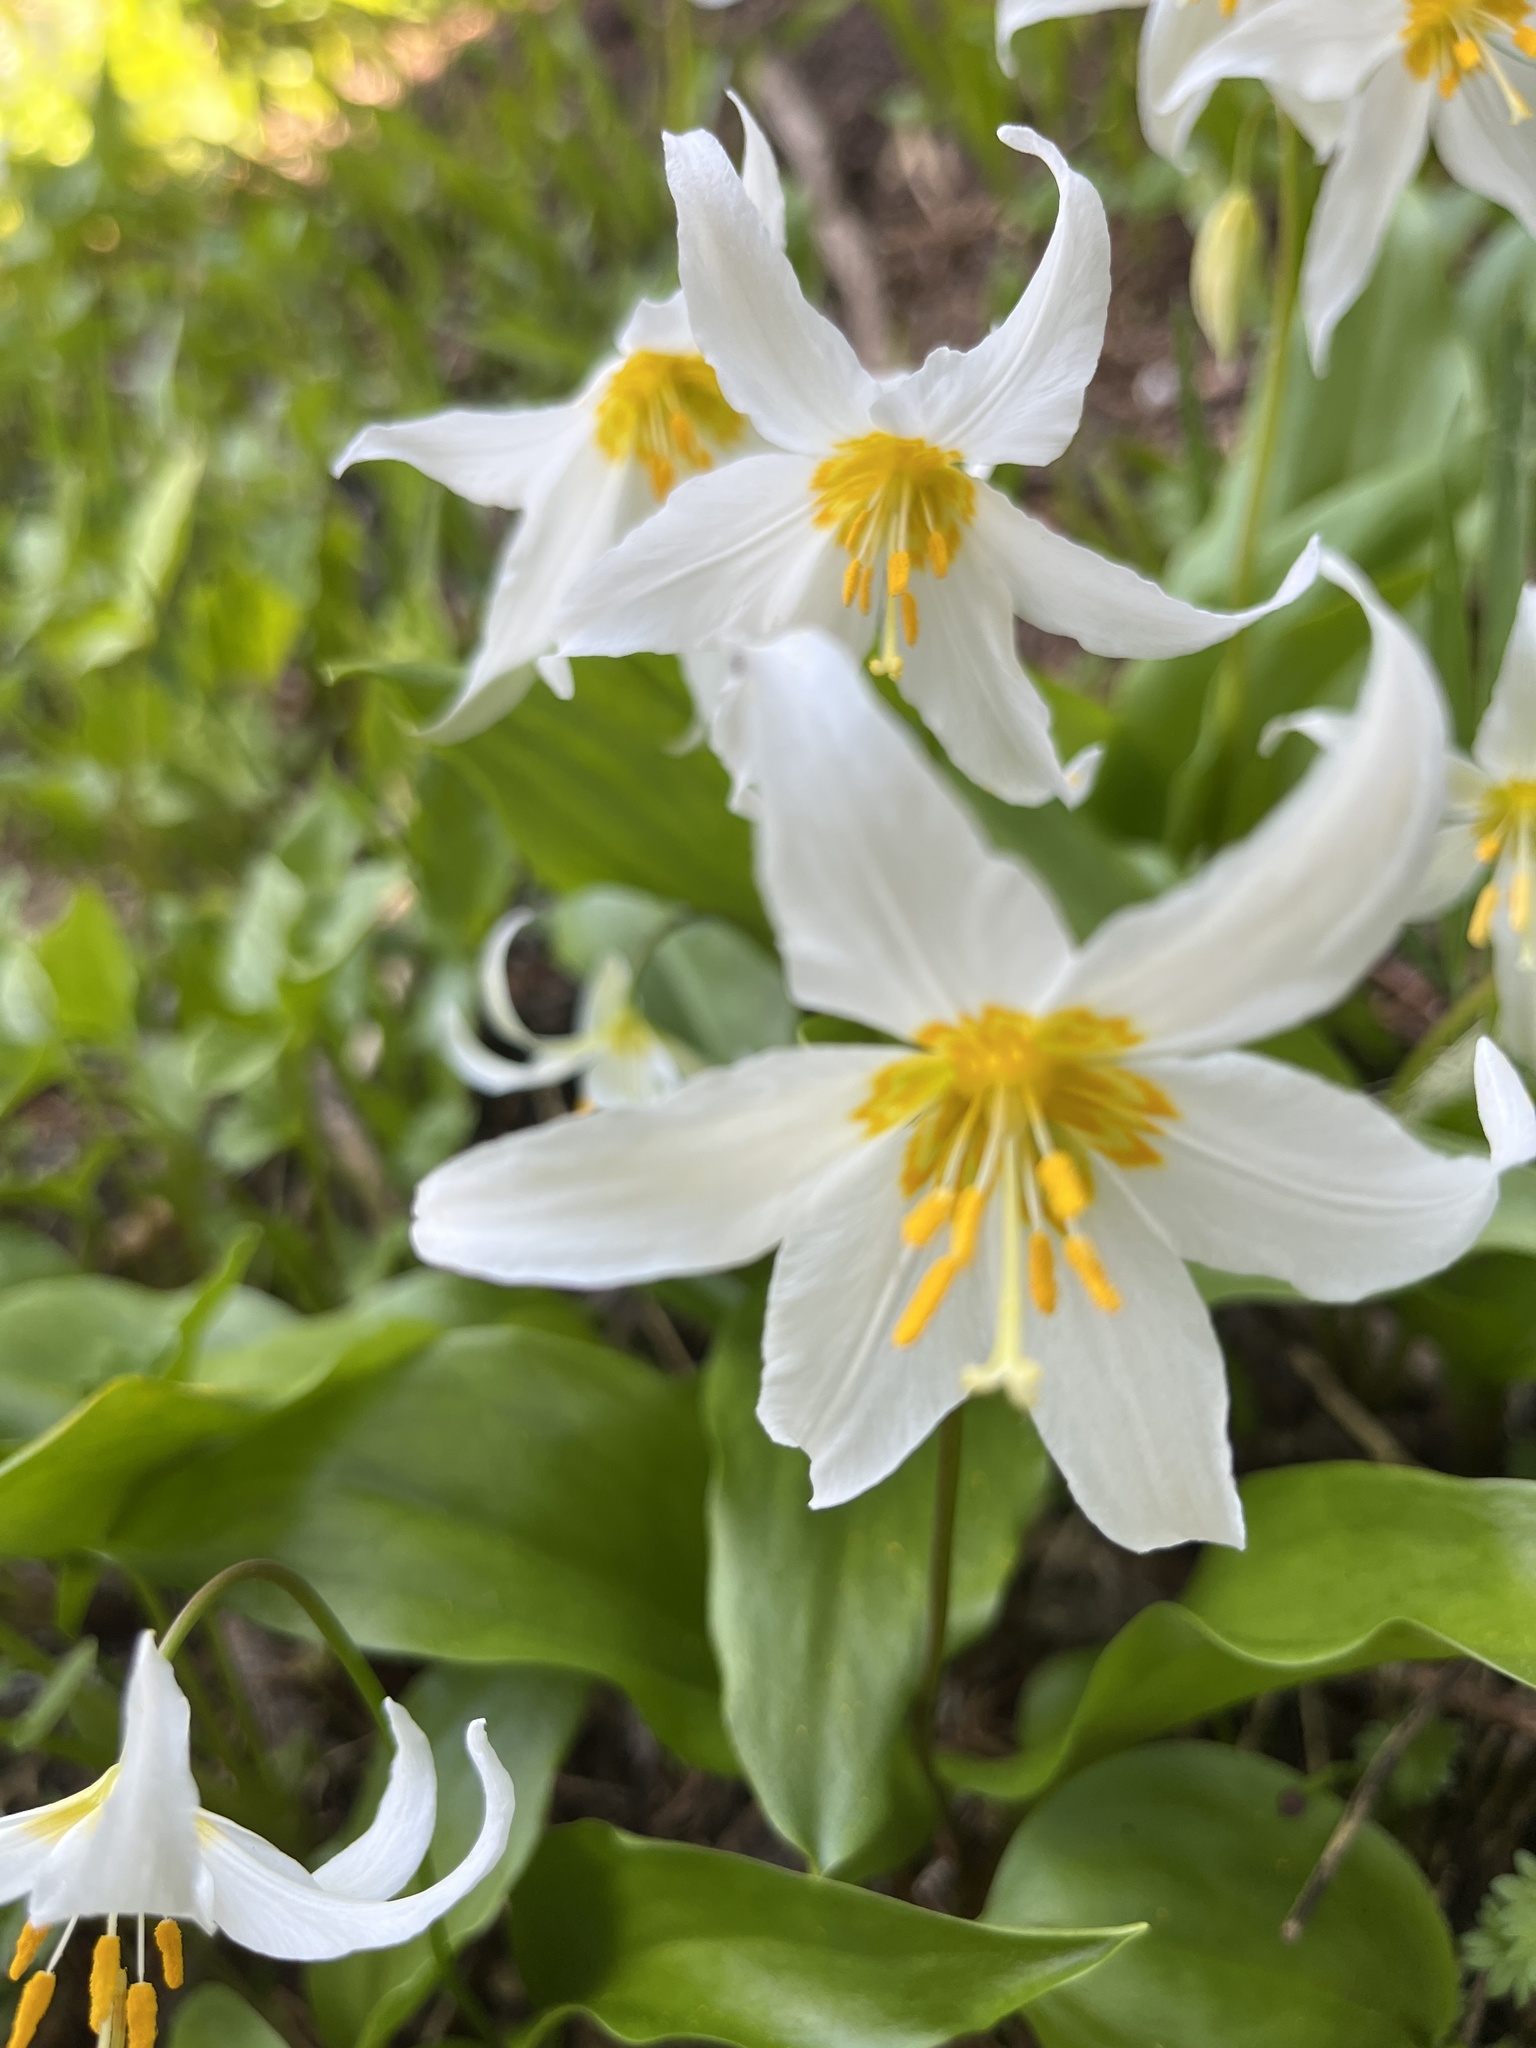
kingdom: Plantae
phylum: Tracheophyta
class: Liliopsida
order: Liliales
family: Liliaceae
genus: Erythronium
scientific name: Erythronium montanum
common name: Avalanche lily
